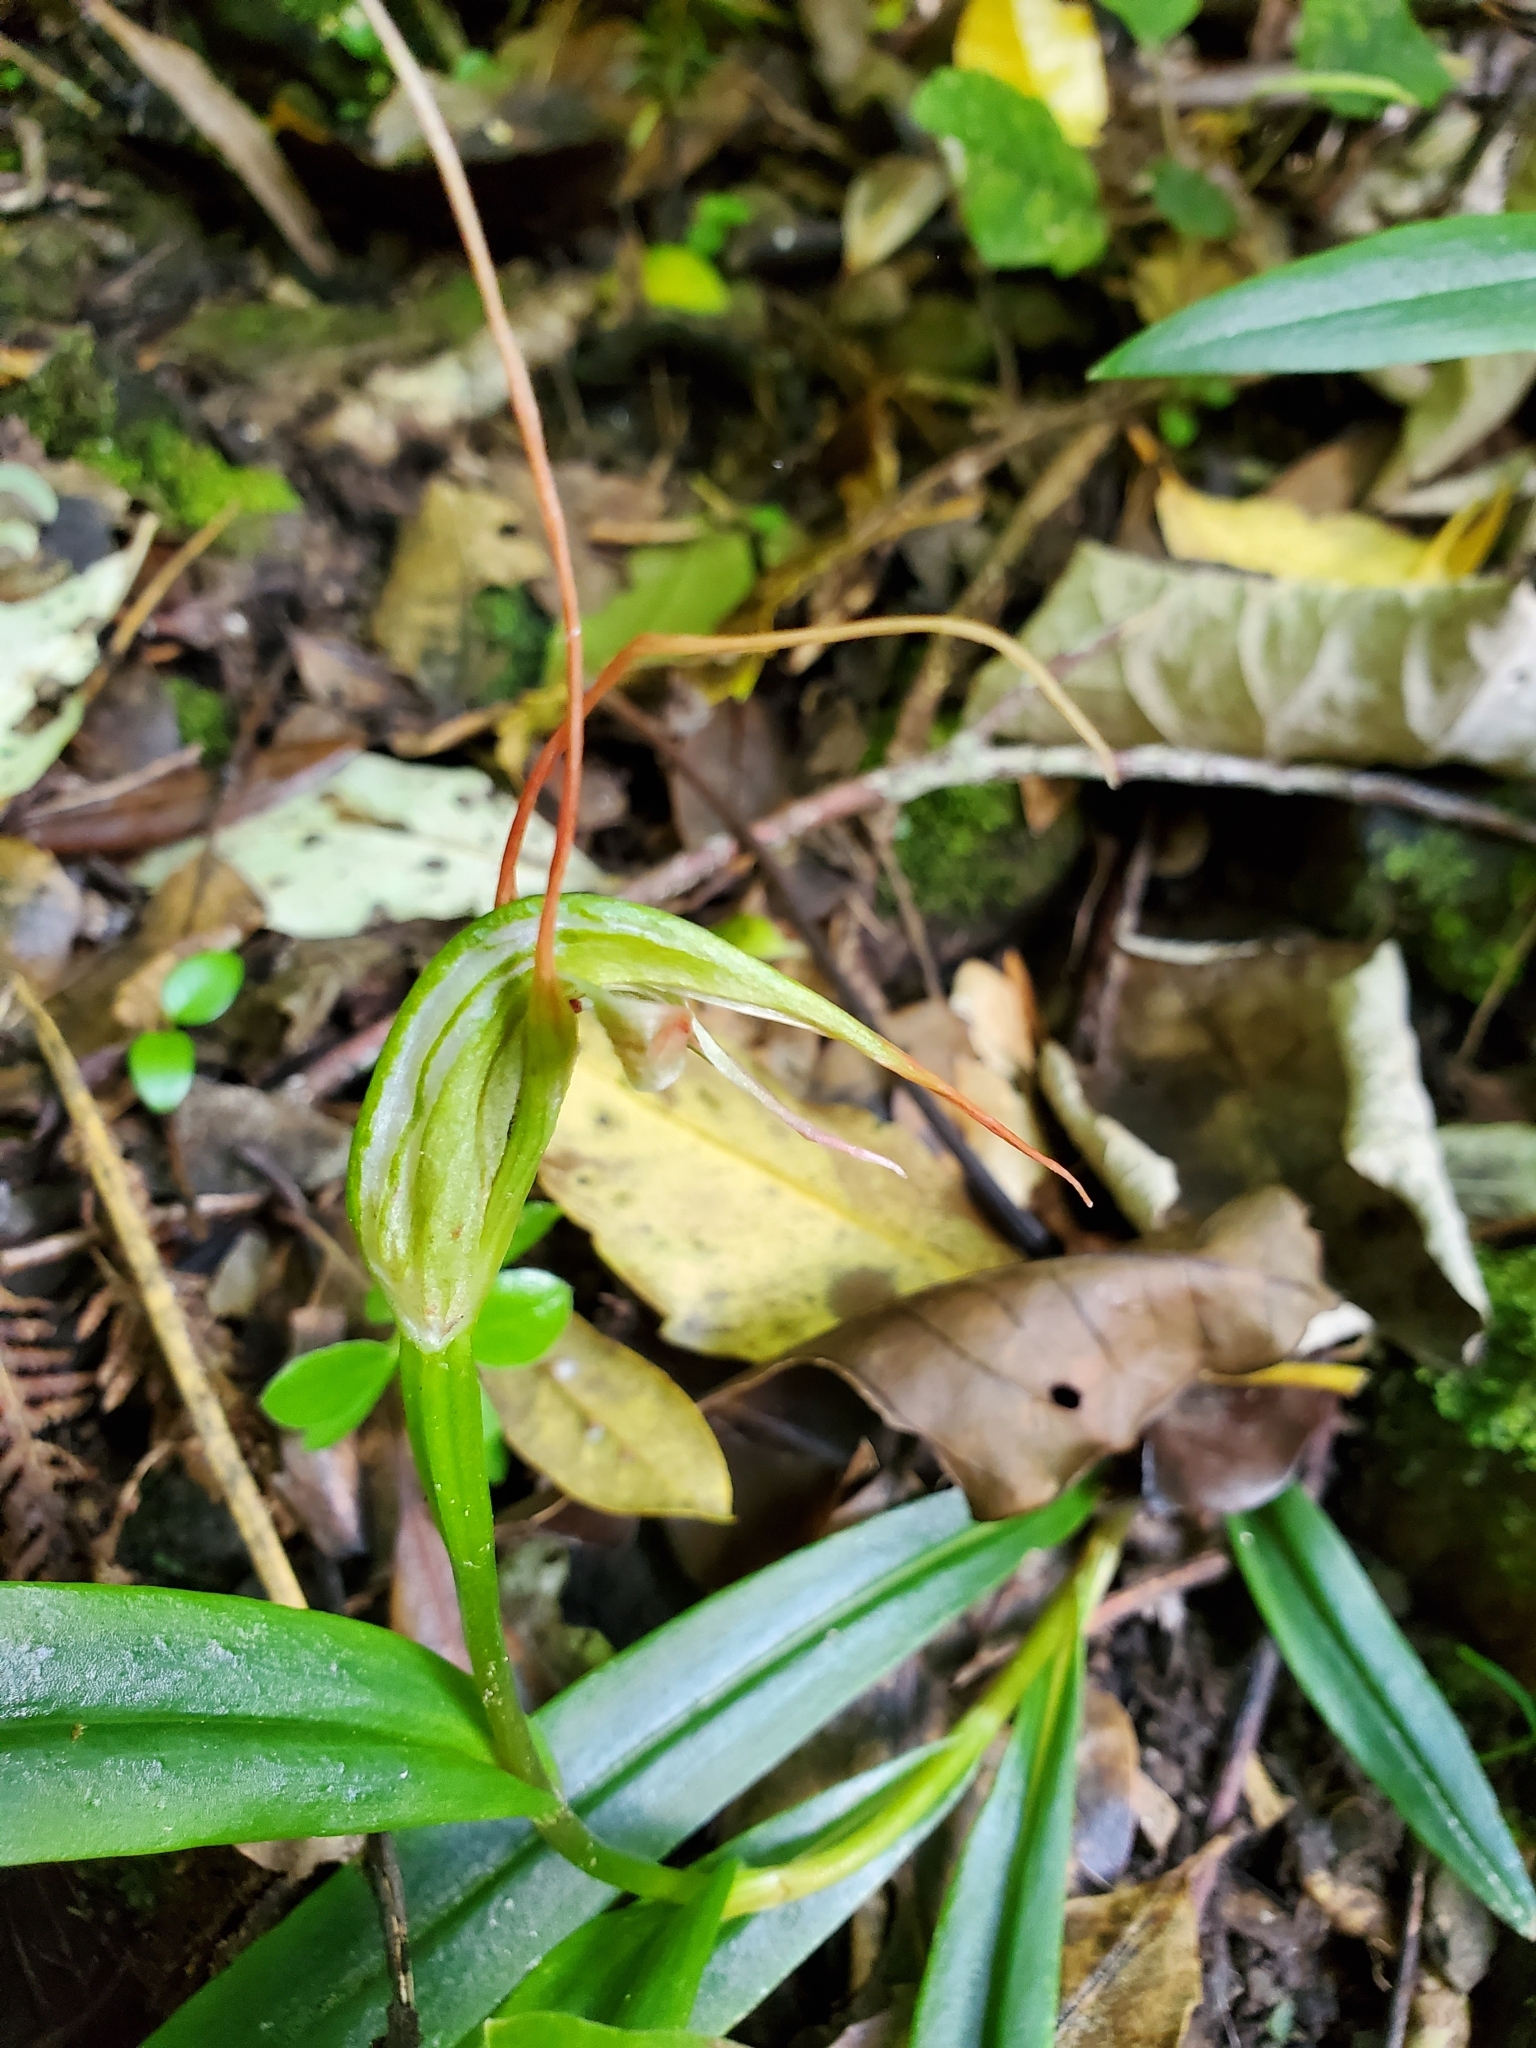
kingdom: Plantae
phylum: Tracheophyta
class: Liliopsida
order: Asparagales
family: Orchidaceae
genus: Pterostylis
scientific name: Pterostylis banksii
